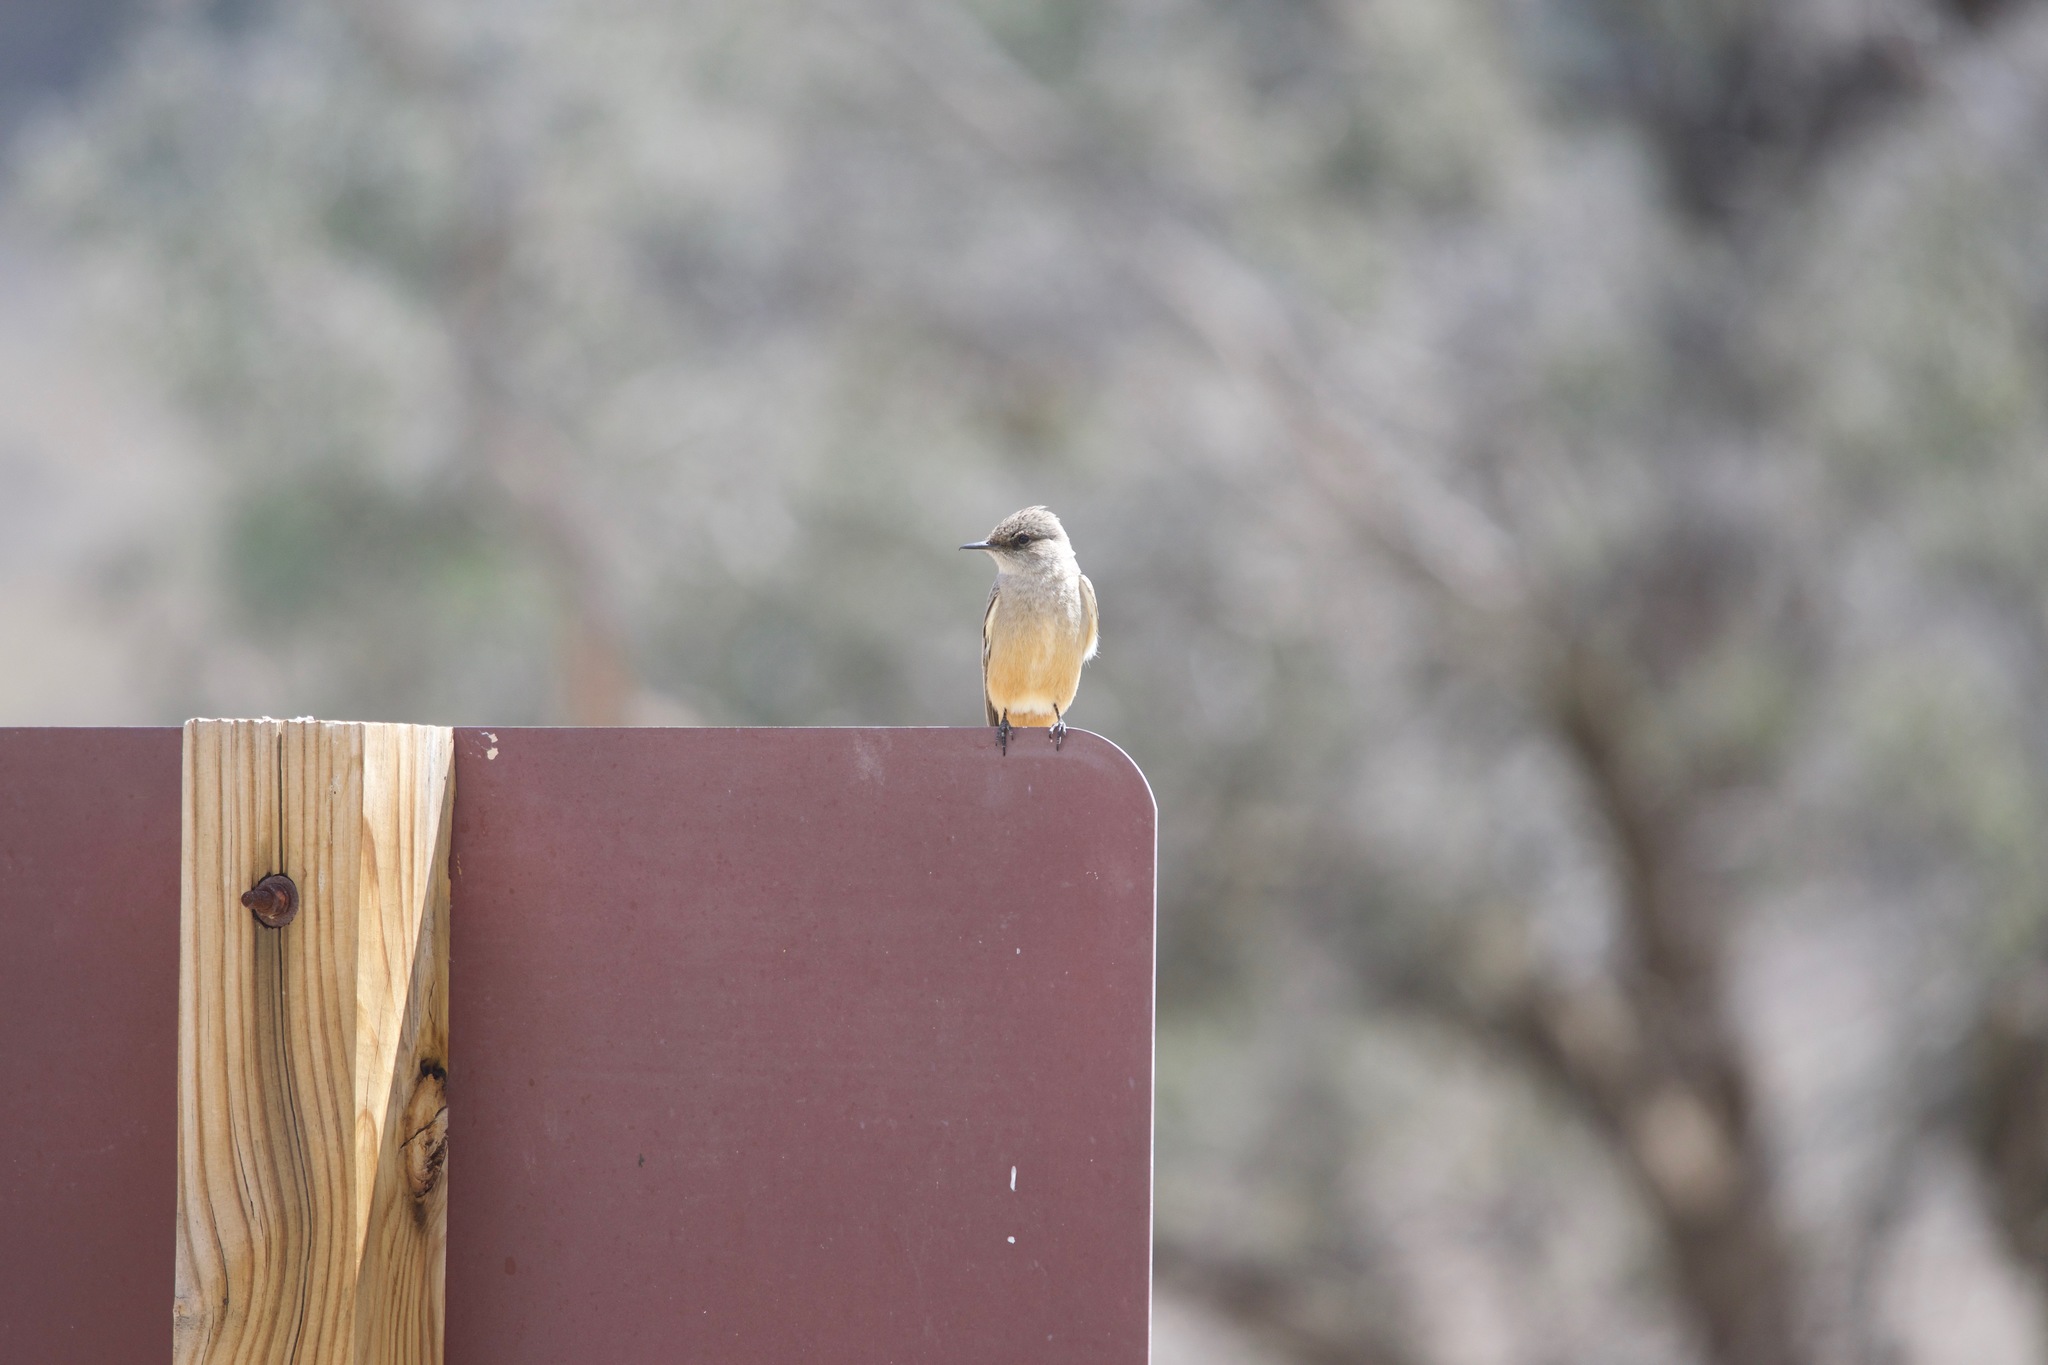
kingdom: Animalia
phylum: Chordata
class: Aves
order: Passeriformes
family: Tyrannidae
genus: Sayornis
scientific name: Sayornis saya
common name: Say's phoebe
